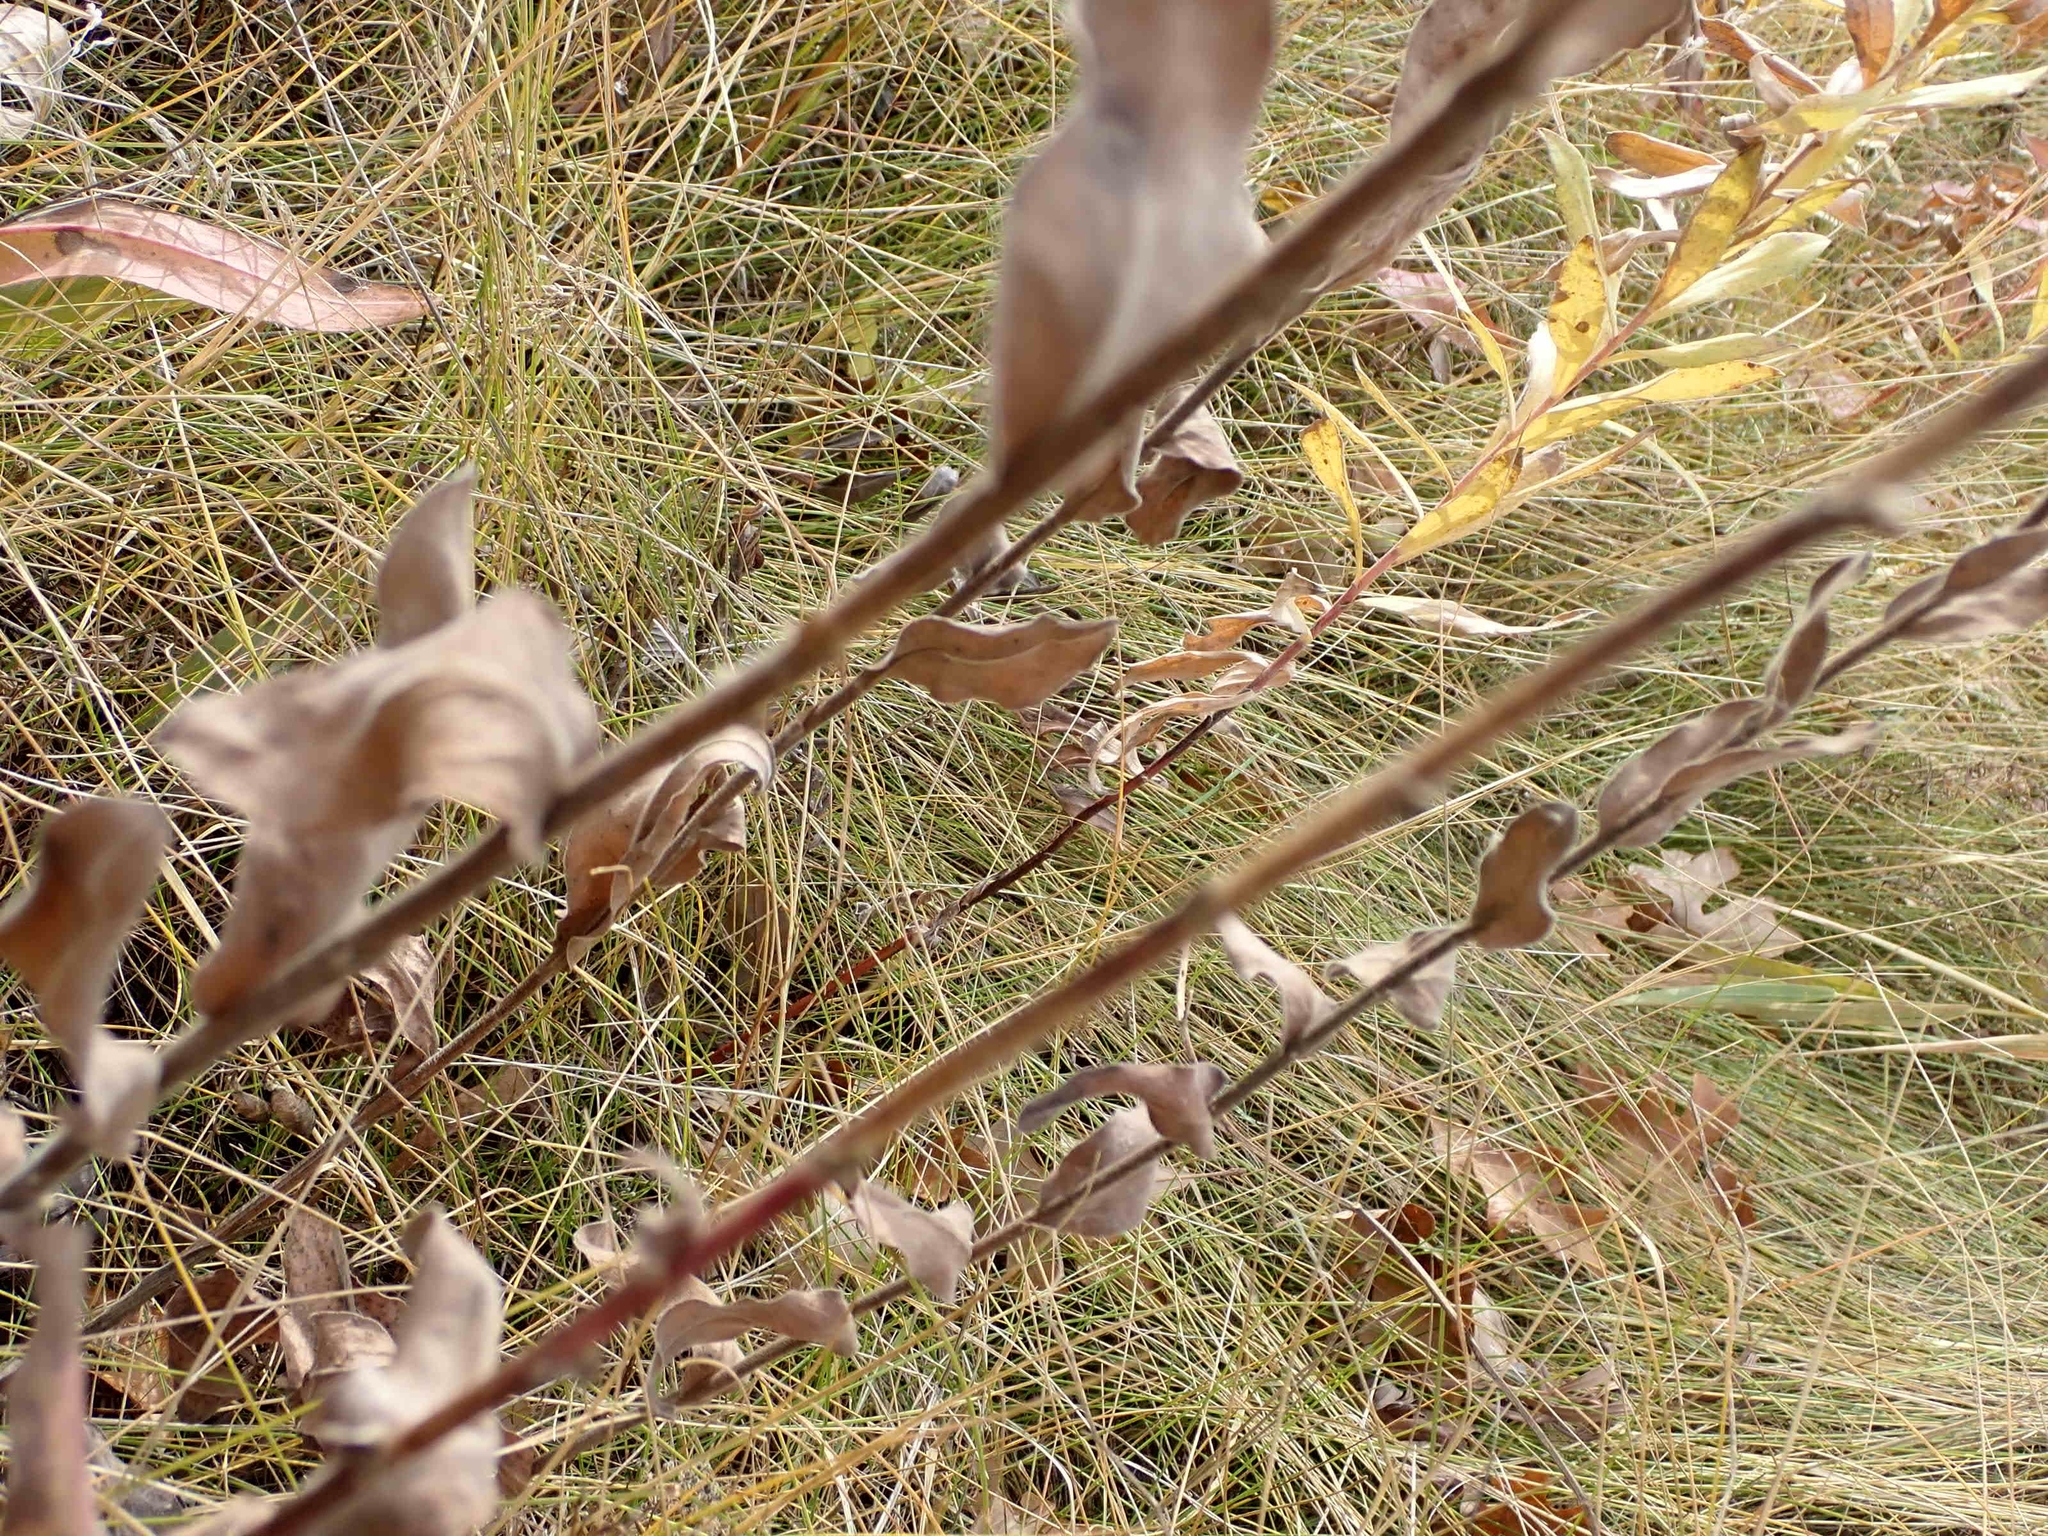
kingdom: Plantae
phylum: Tracheophyta
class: Magnoliopsida
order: Asterales
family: Asteraceae
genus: Solidago
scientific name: Solidago rigida
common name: Rigid goldenrod
